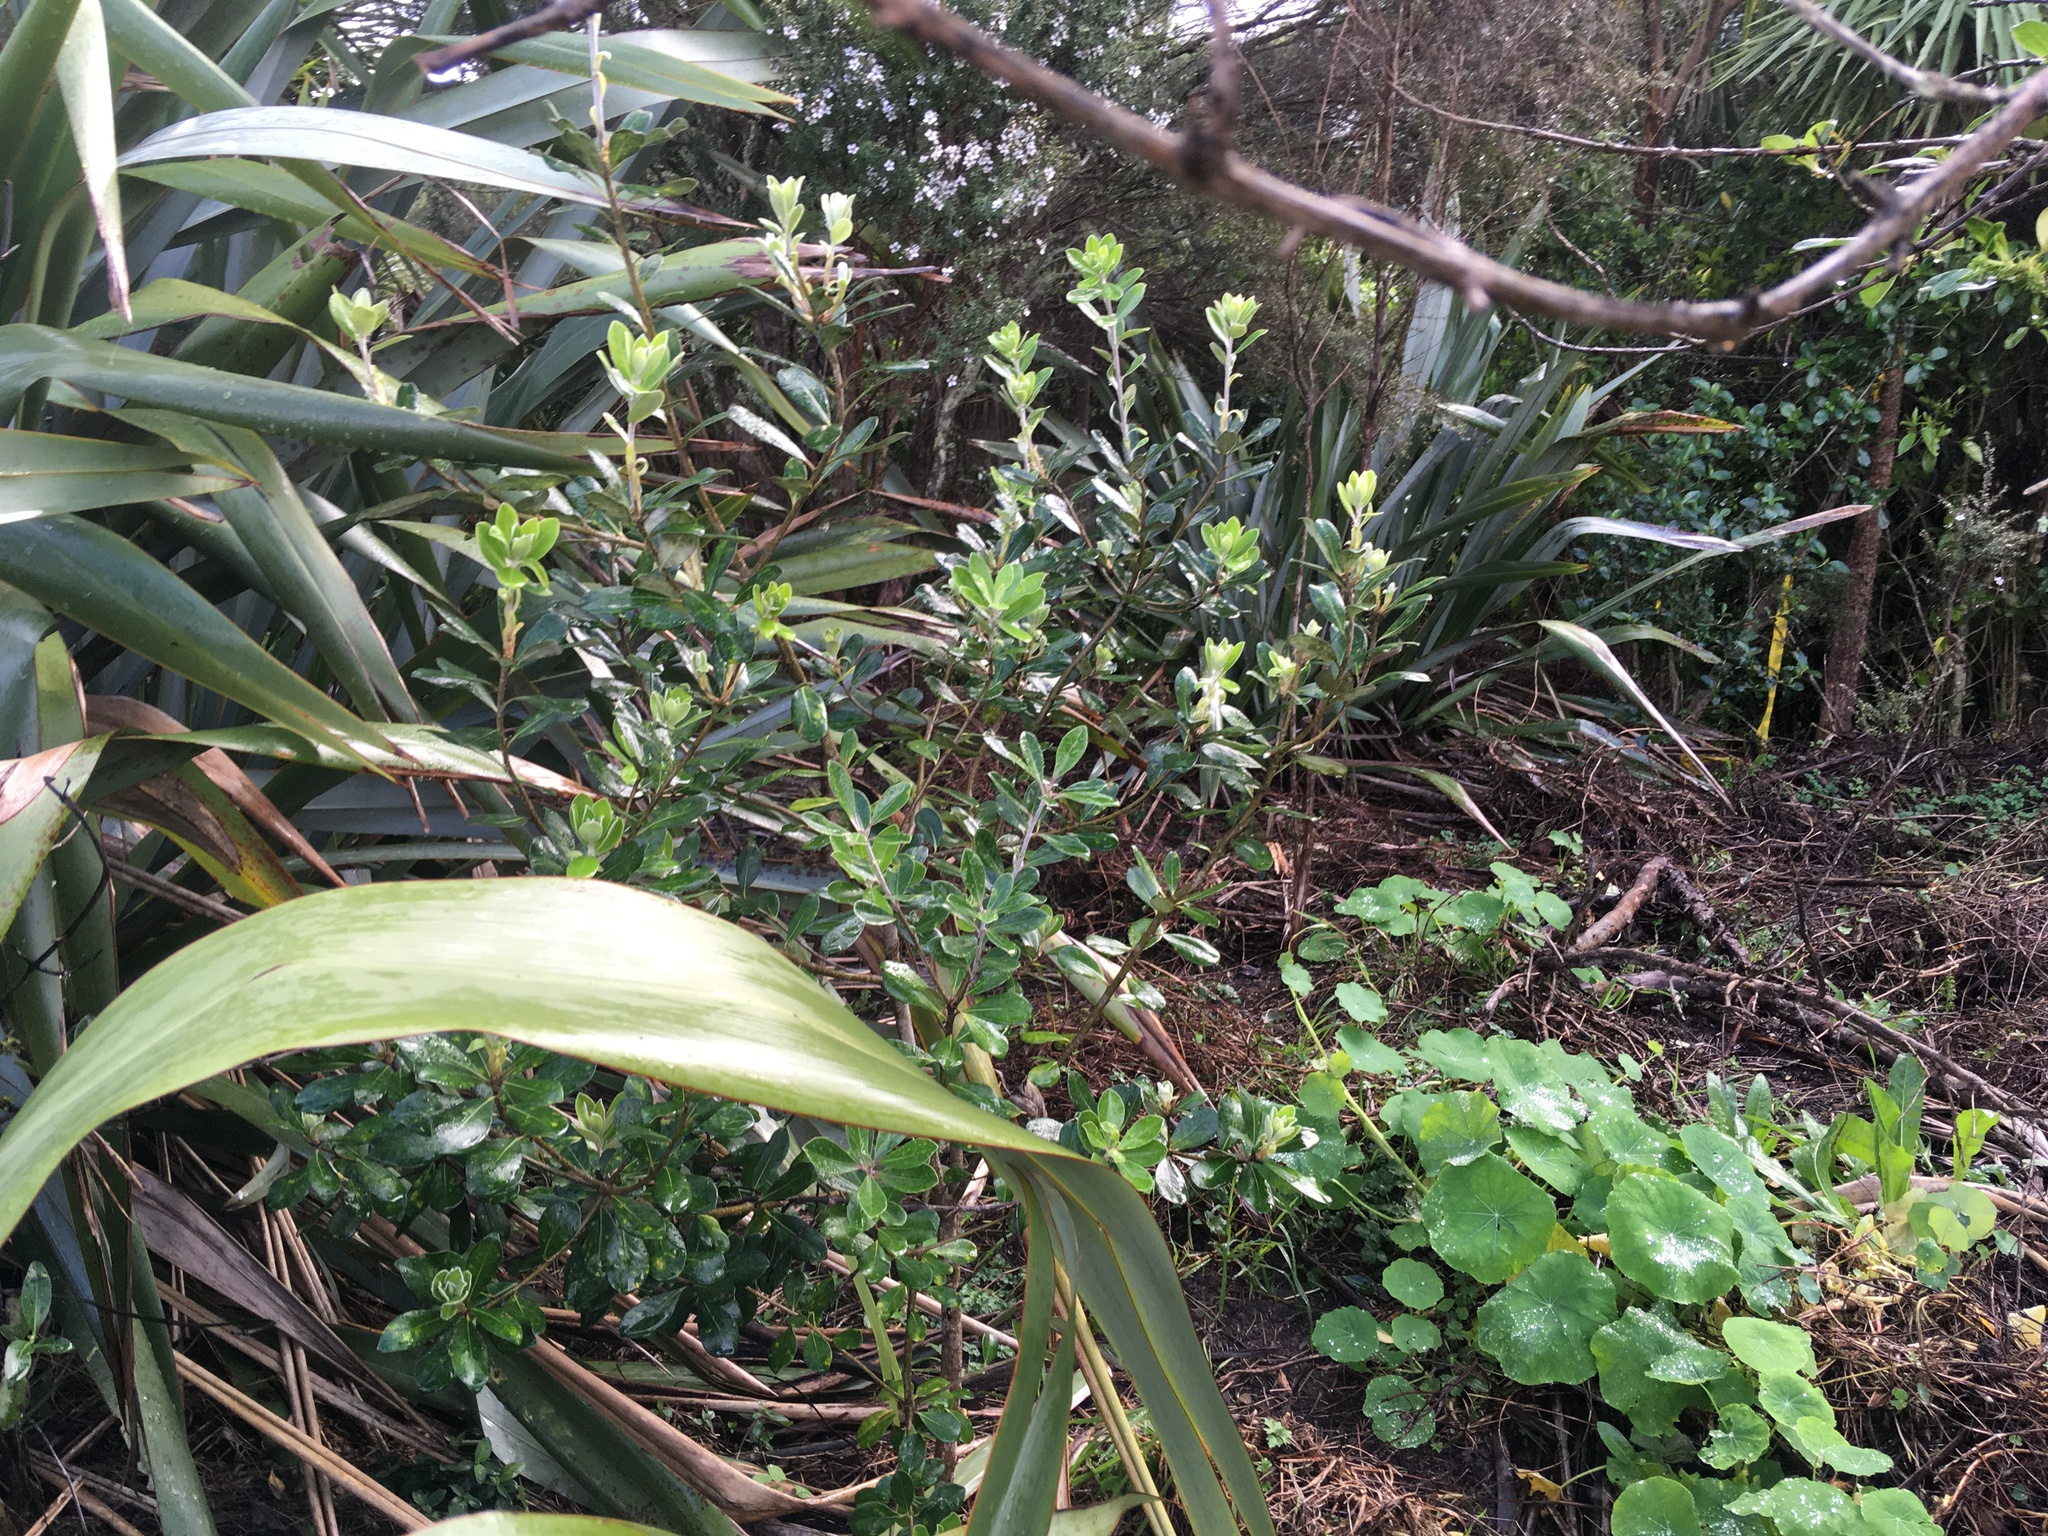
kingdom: Plantae
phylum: Tracheophyta
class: Magnoliopsida
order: Apiales
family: Pittosporaceae
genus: Pittosporum
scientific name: Pittosporum crassifolium
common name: Karo
